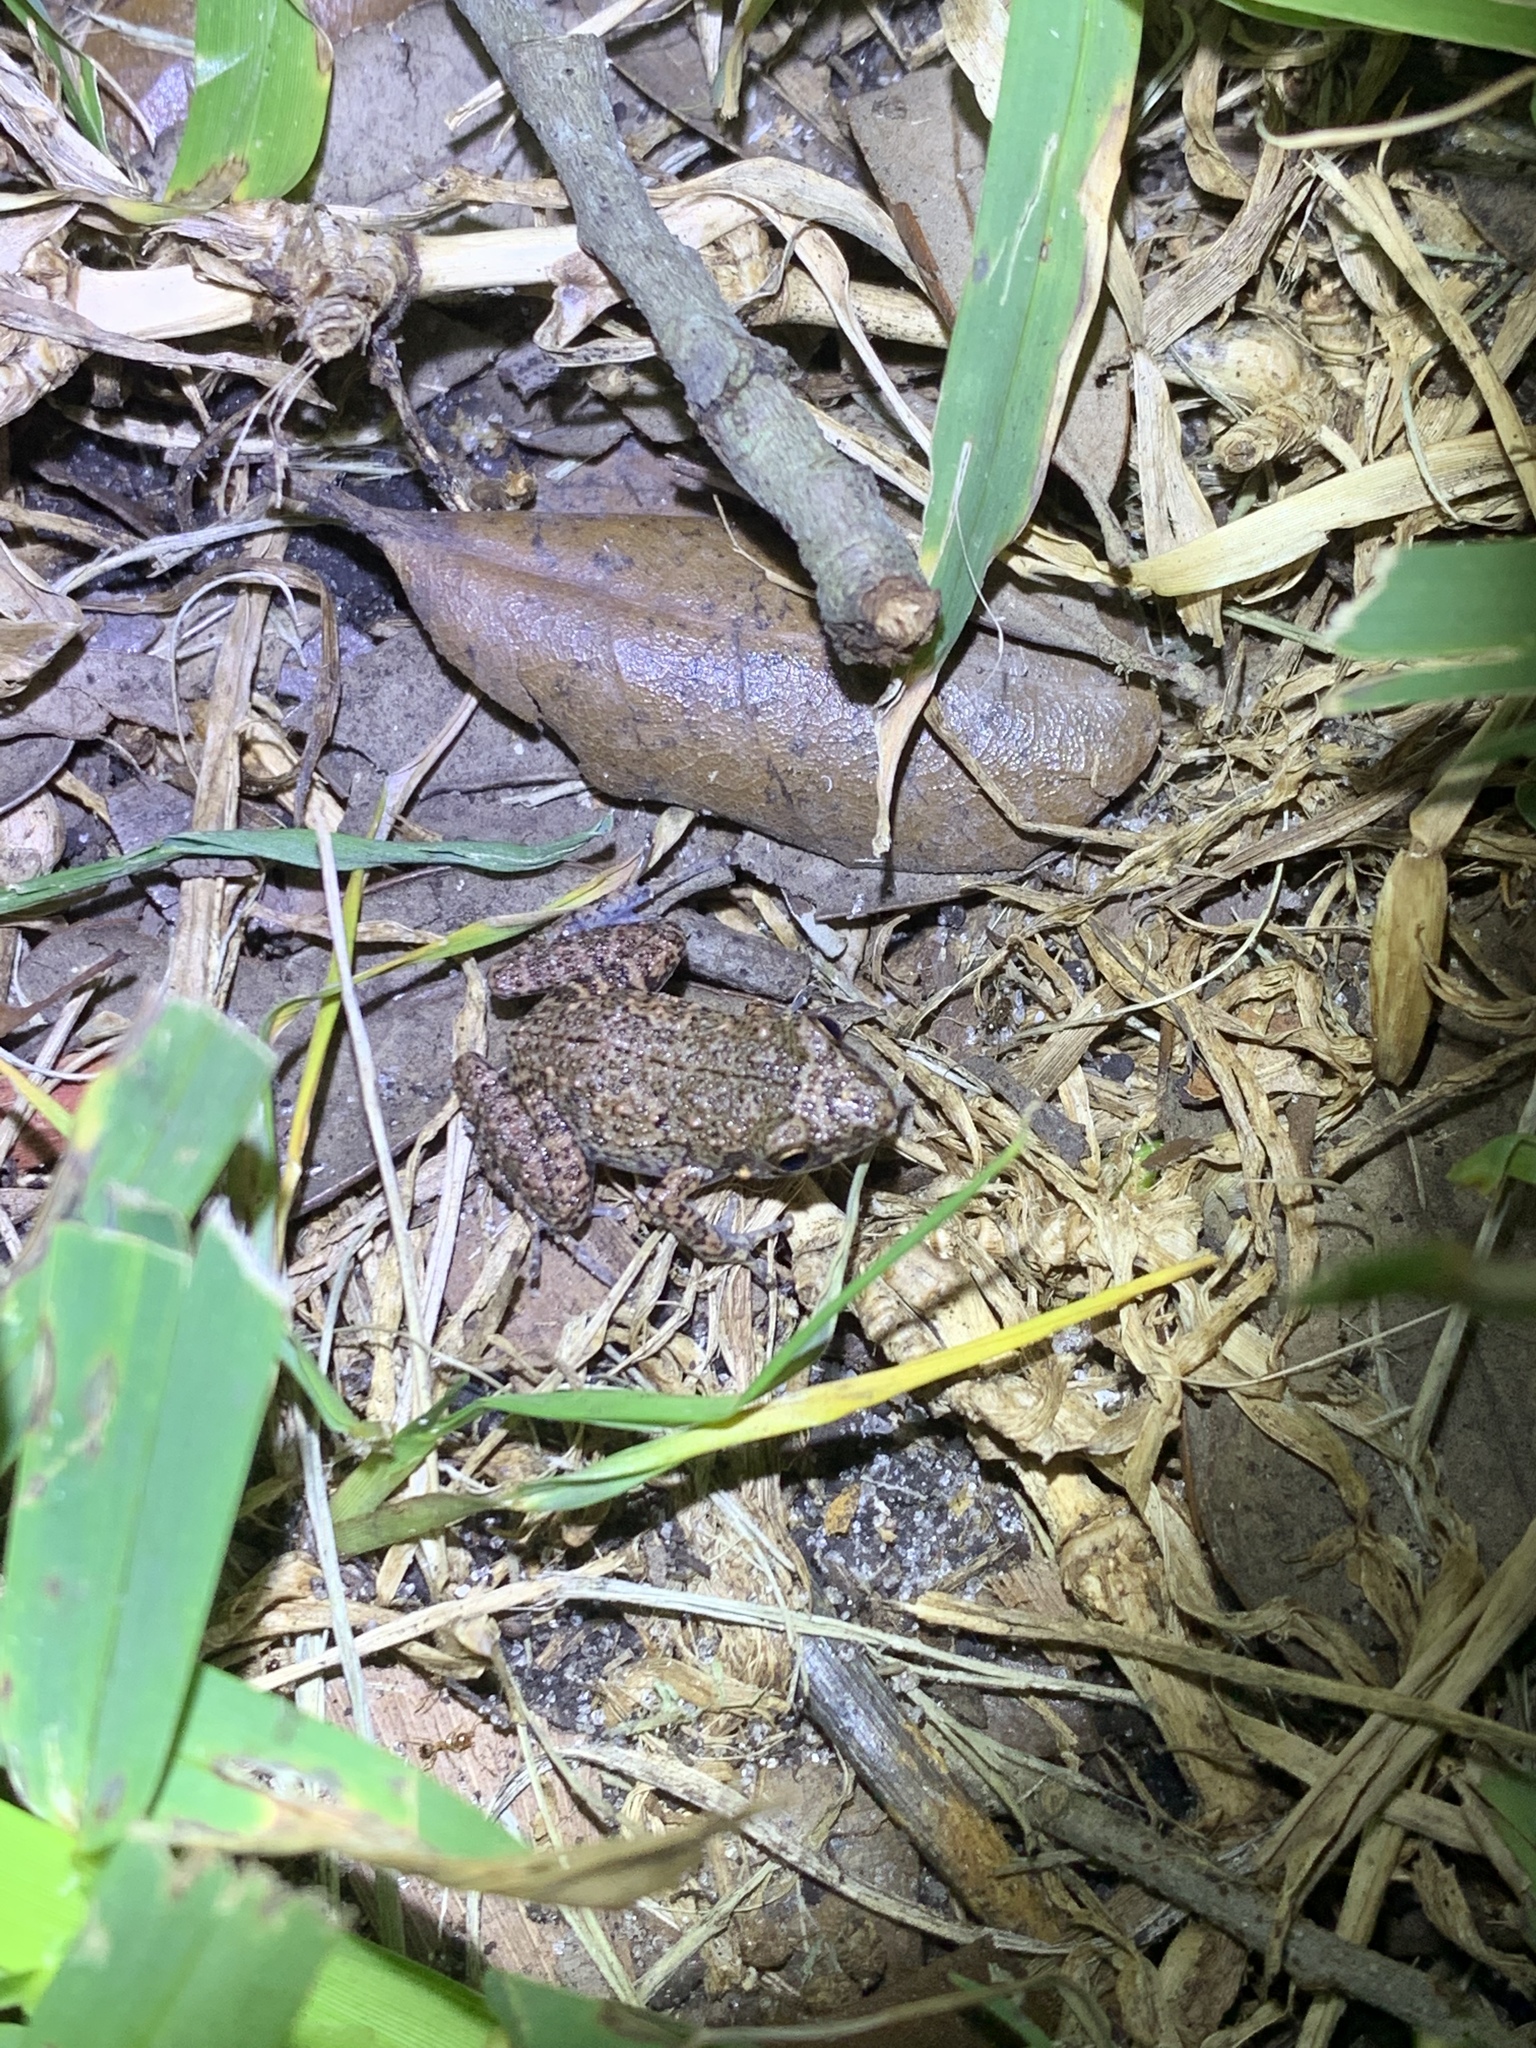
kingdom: Animalia
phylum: Chordata
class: Amphibia
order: Anura
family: Eleutherodactylidae
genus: Eleutherodactylus
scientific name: Eleutherodactylus planirostris
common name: Greenhouse frog
